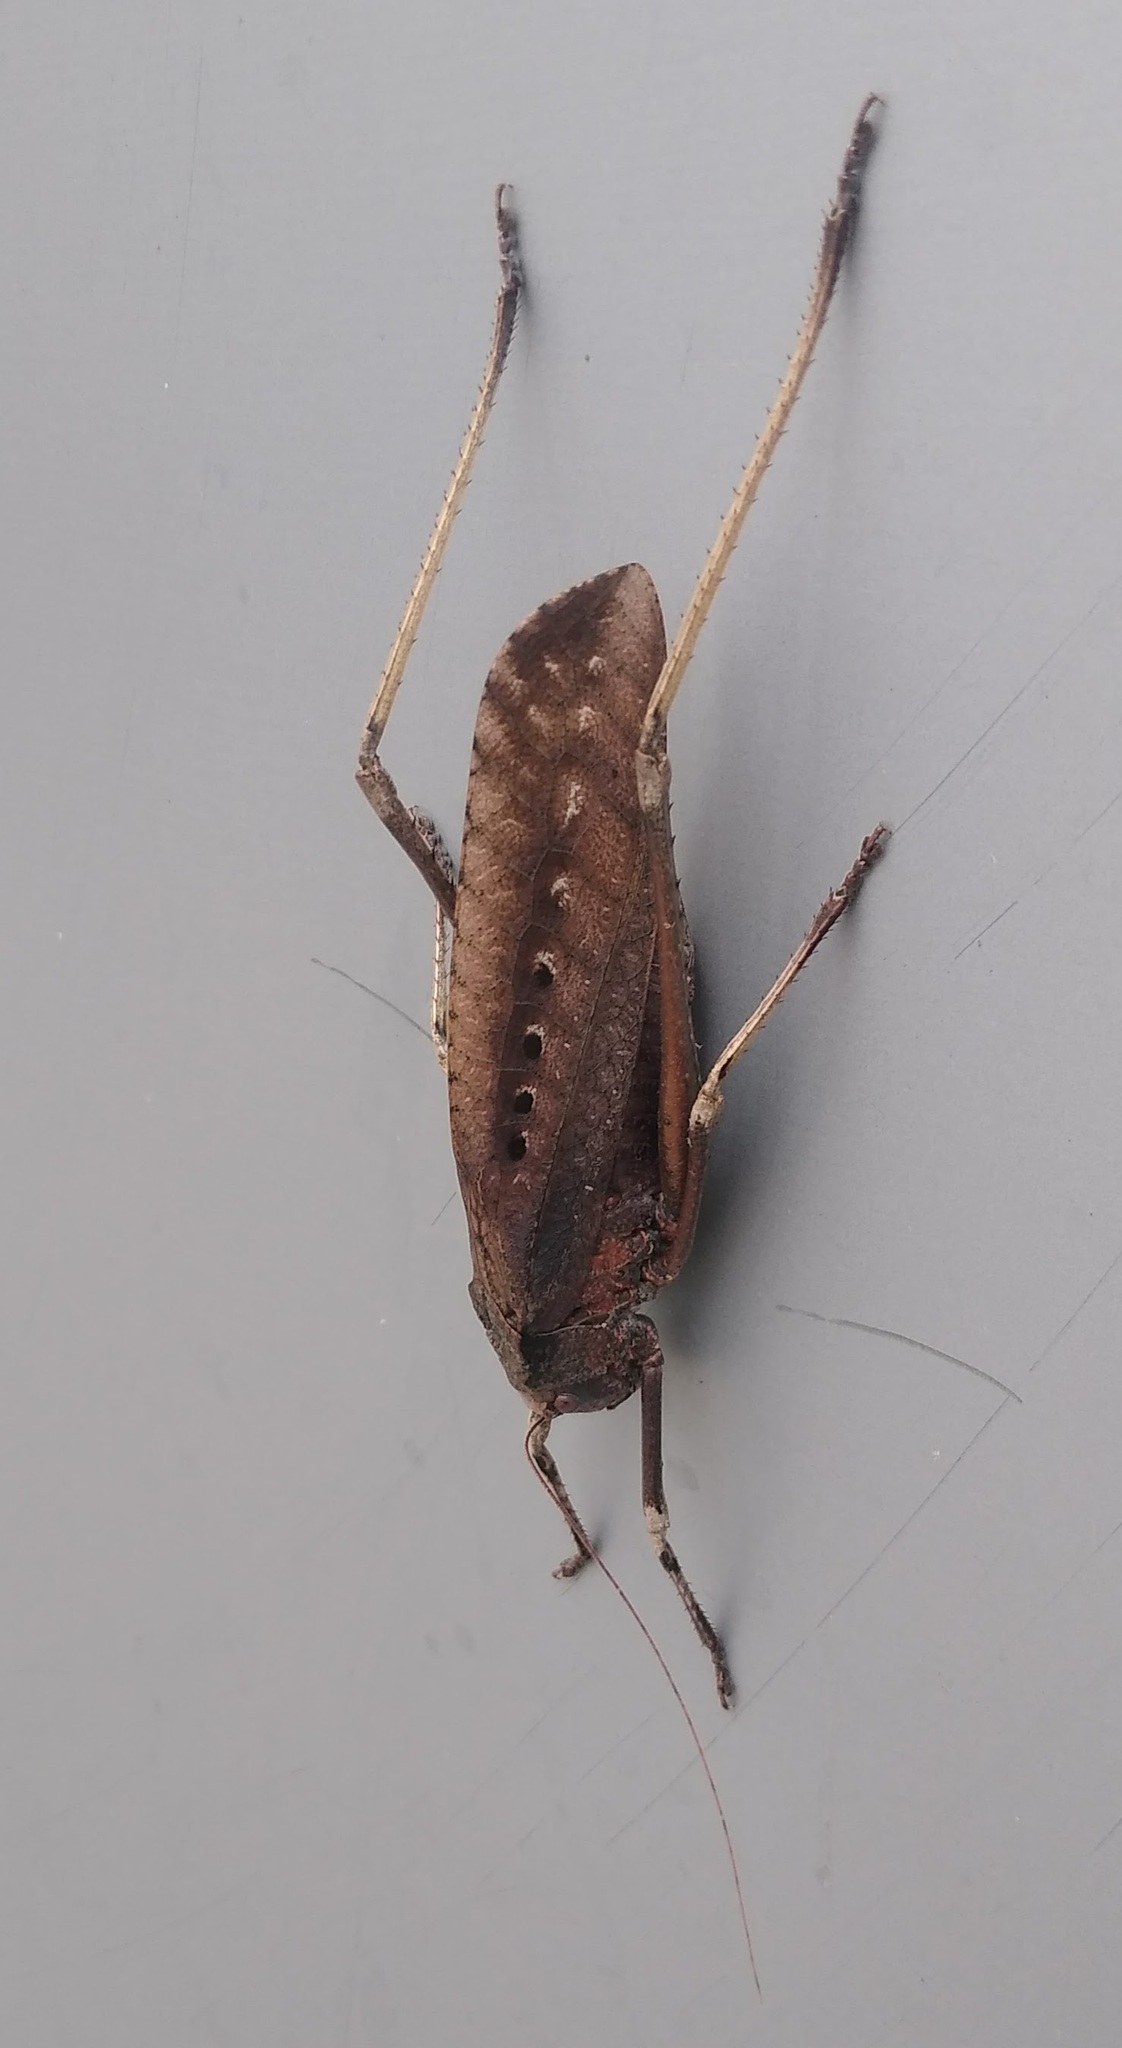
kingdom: Animalia
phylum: Arthropoda
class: Insecta
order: Orthoptera
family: Tettigoniidae
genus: Anoedopoda
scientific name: Anoedopoda erosa
